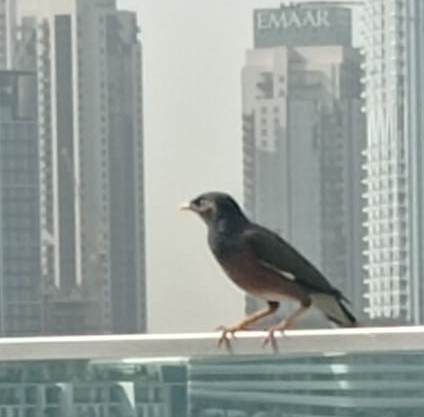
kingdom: Animalia
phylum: Chordata
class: Aves
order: Passeriformes
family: Sturnidae
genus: Acridotheres
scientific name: Acridotheres tristis
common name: Common myna
